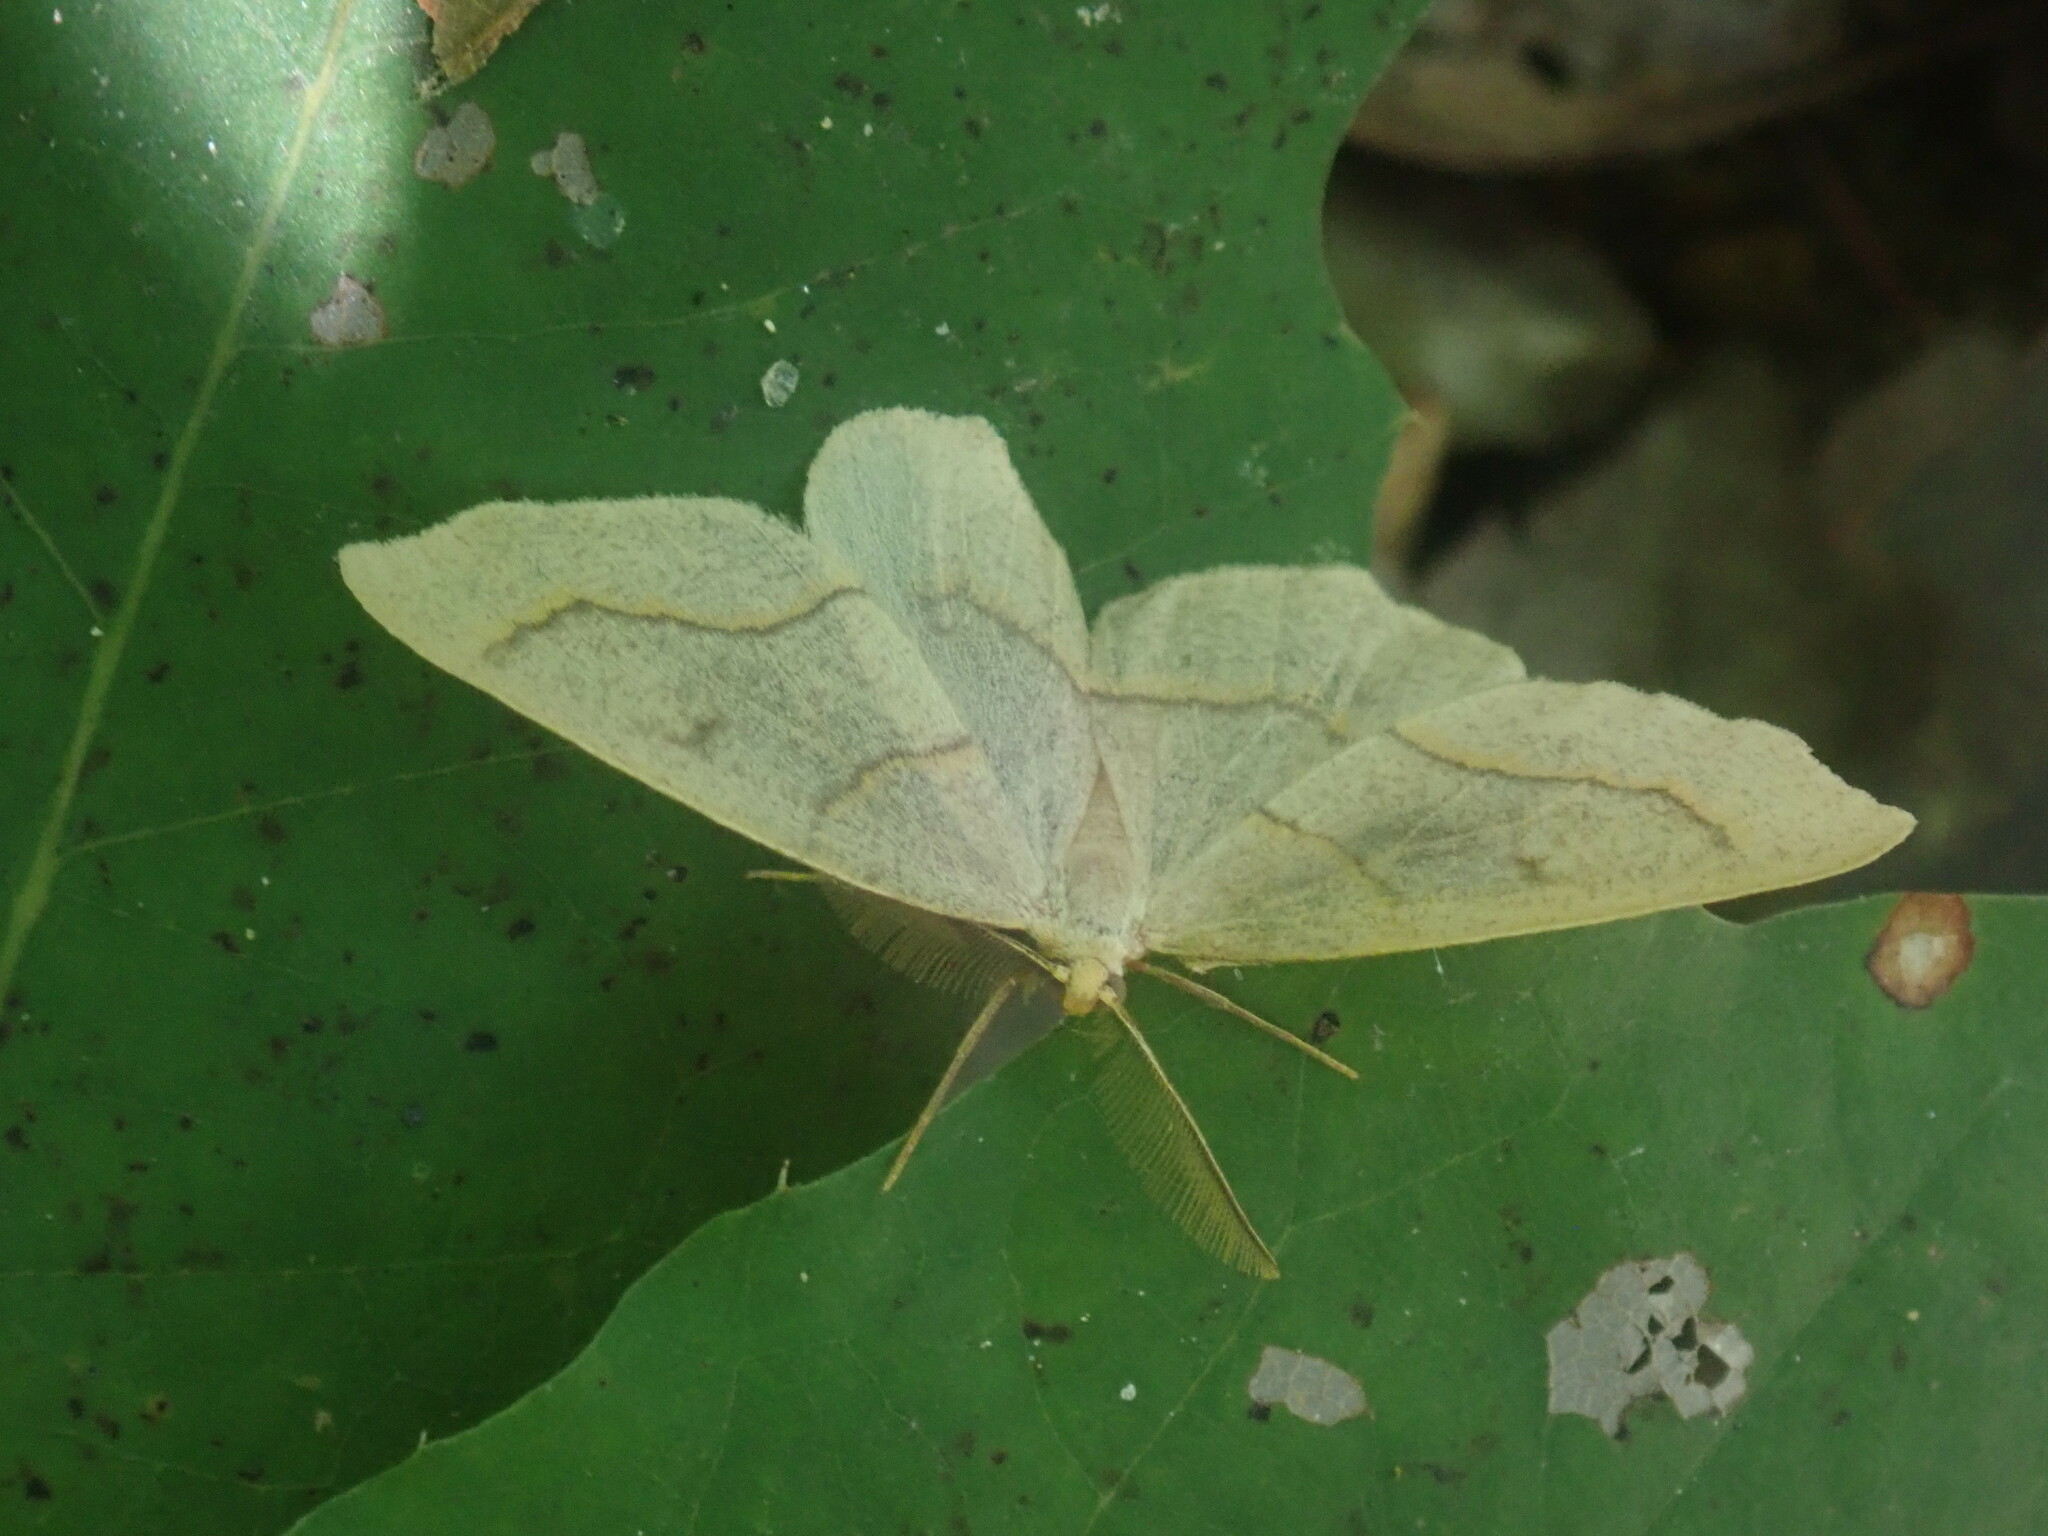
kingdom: Animalia
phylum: Arthropoda
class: Insecta
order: Lepidoptera
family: Geometridae
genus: Lambdina
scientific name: Lambdina fiscellaria
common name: Hemlock looper
